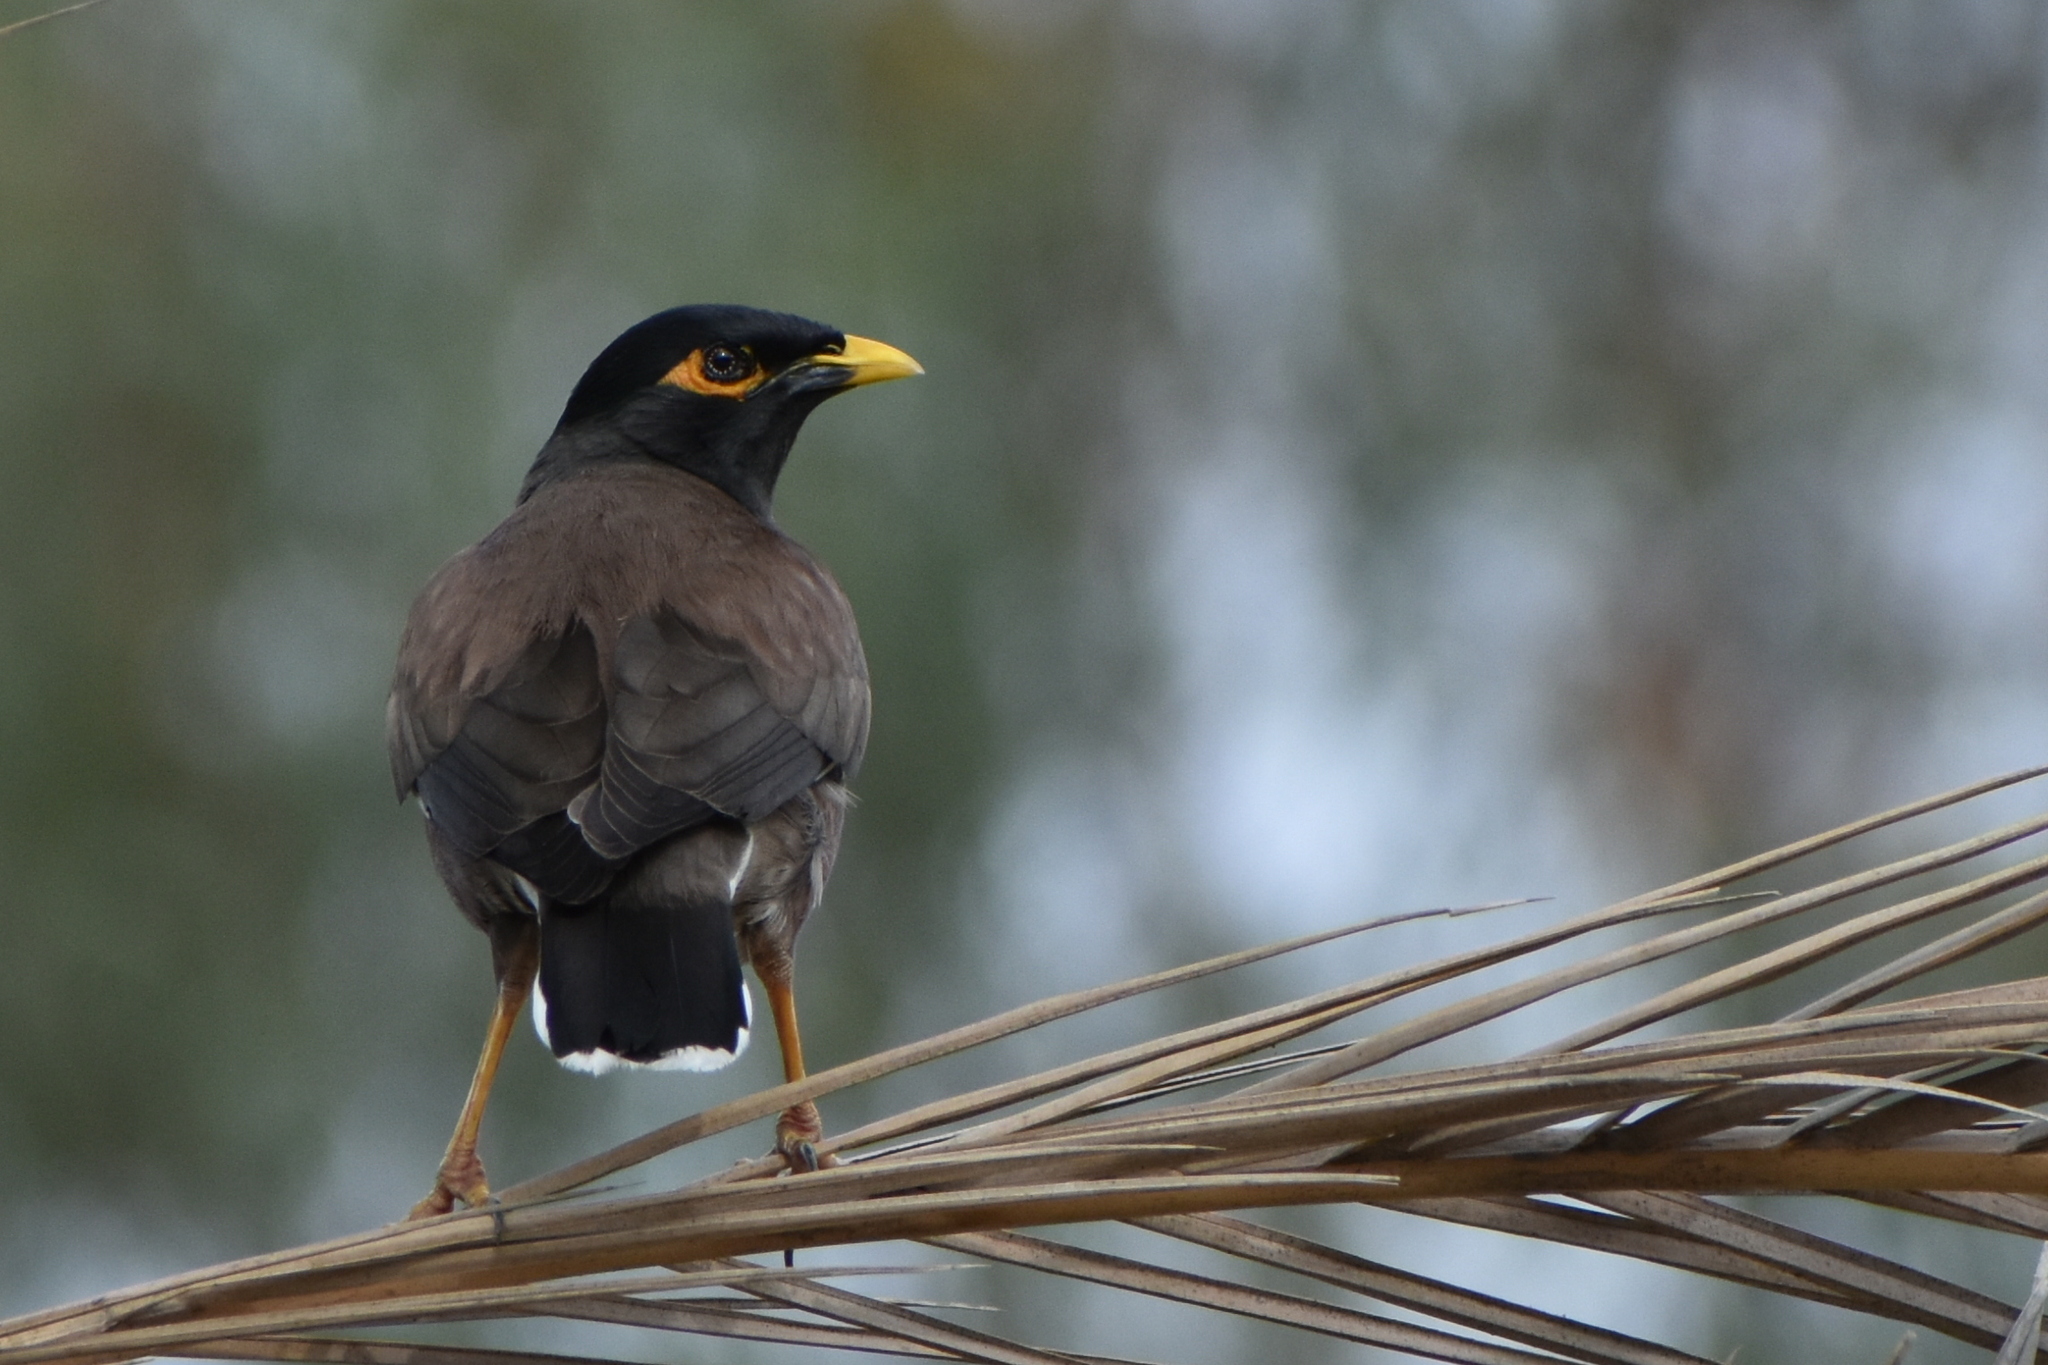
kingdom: Animalia
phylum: Chordata
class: Aves
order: Passeriformes
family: Sturnidae
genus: Acridotheres
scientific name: Acridotheres tristis
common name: Common myna
